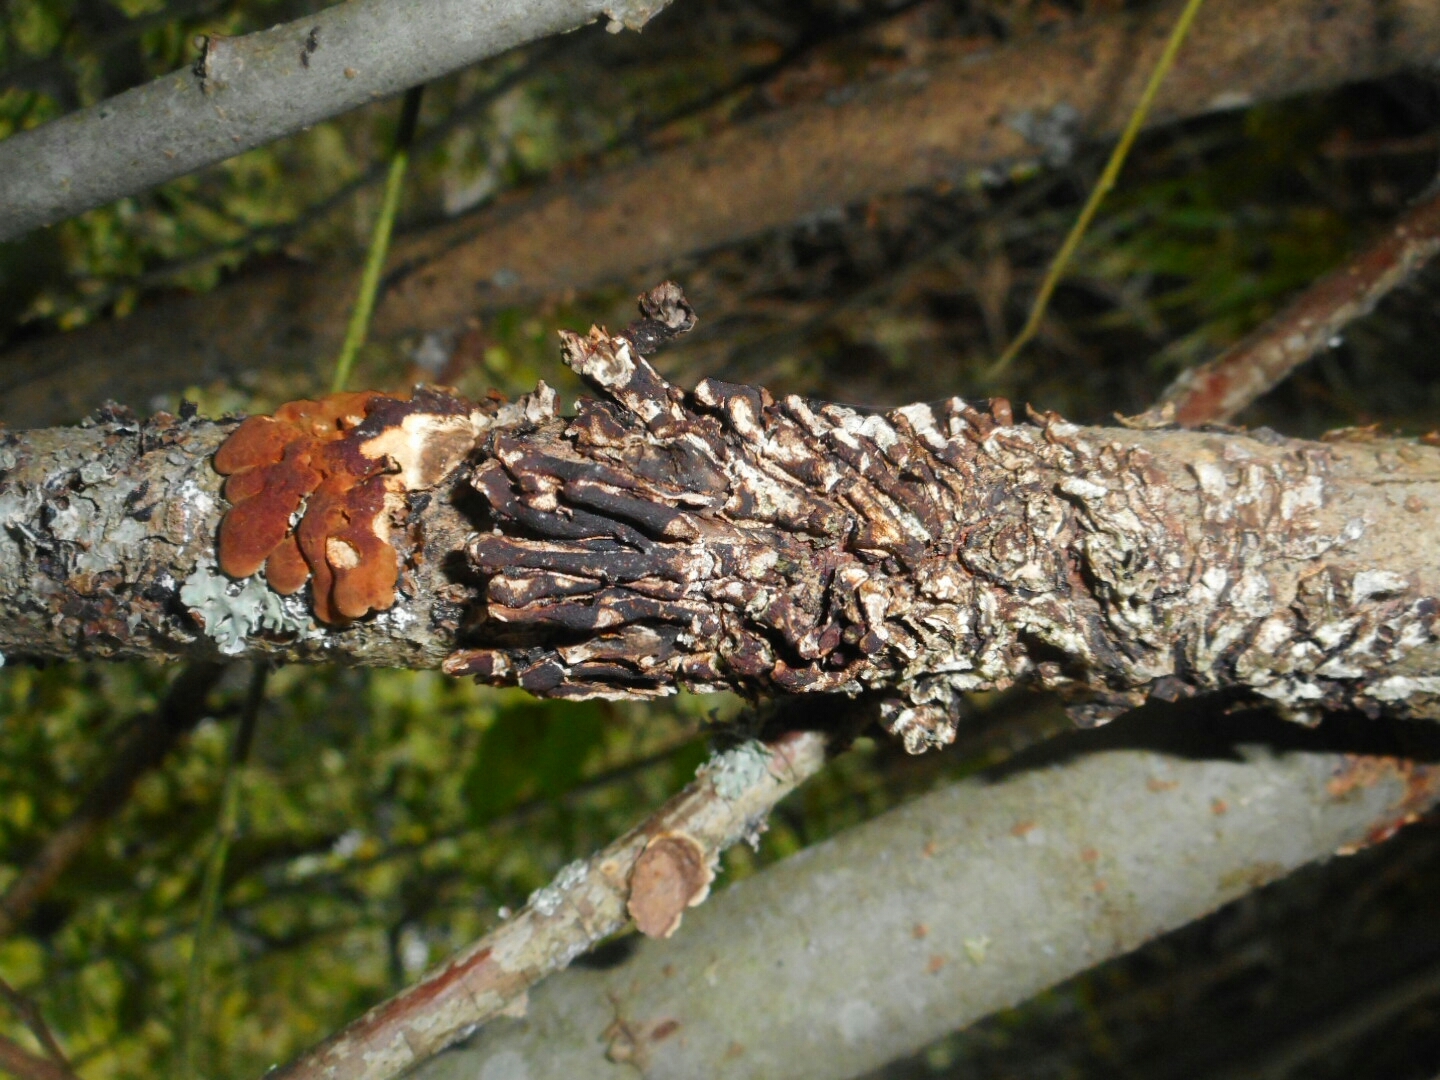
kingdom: Fungi
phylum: Ascomycota
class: Sordariomycetes
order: Hypocreales
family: Hypocreaceae
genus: Hypocreopsis
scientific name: Hypocreopsis lichenoides
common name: Willow gloves
